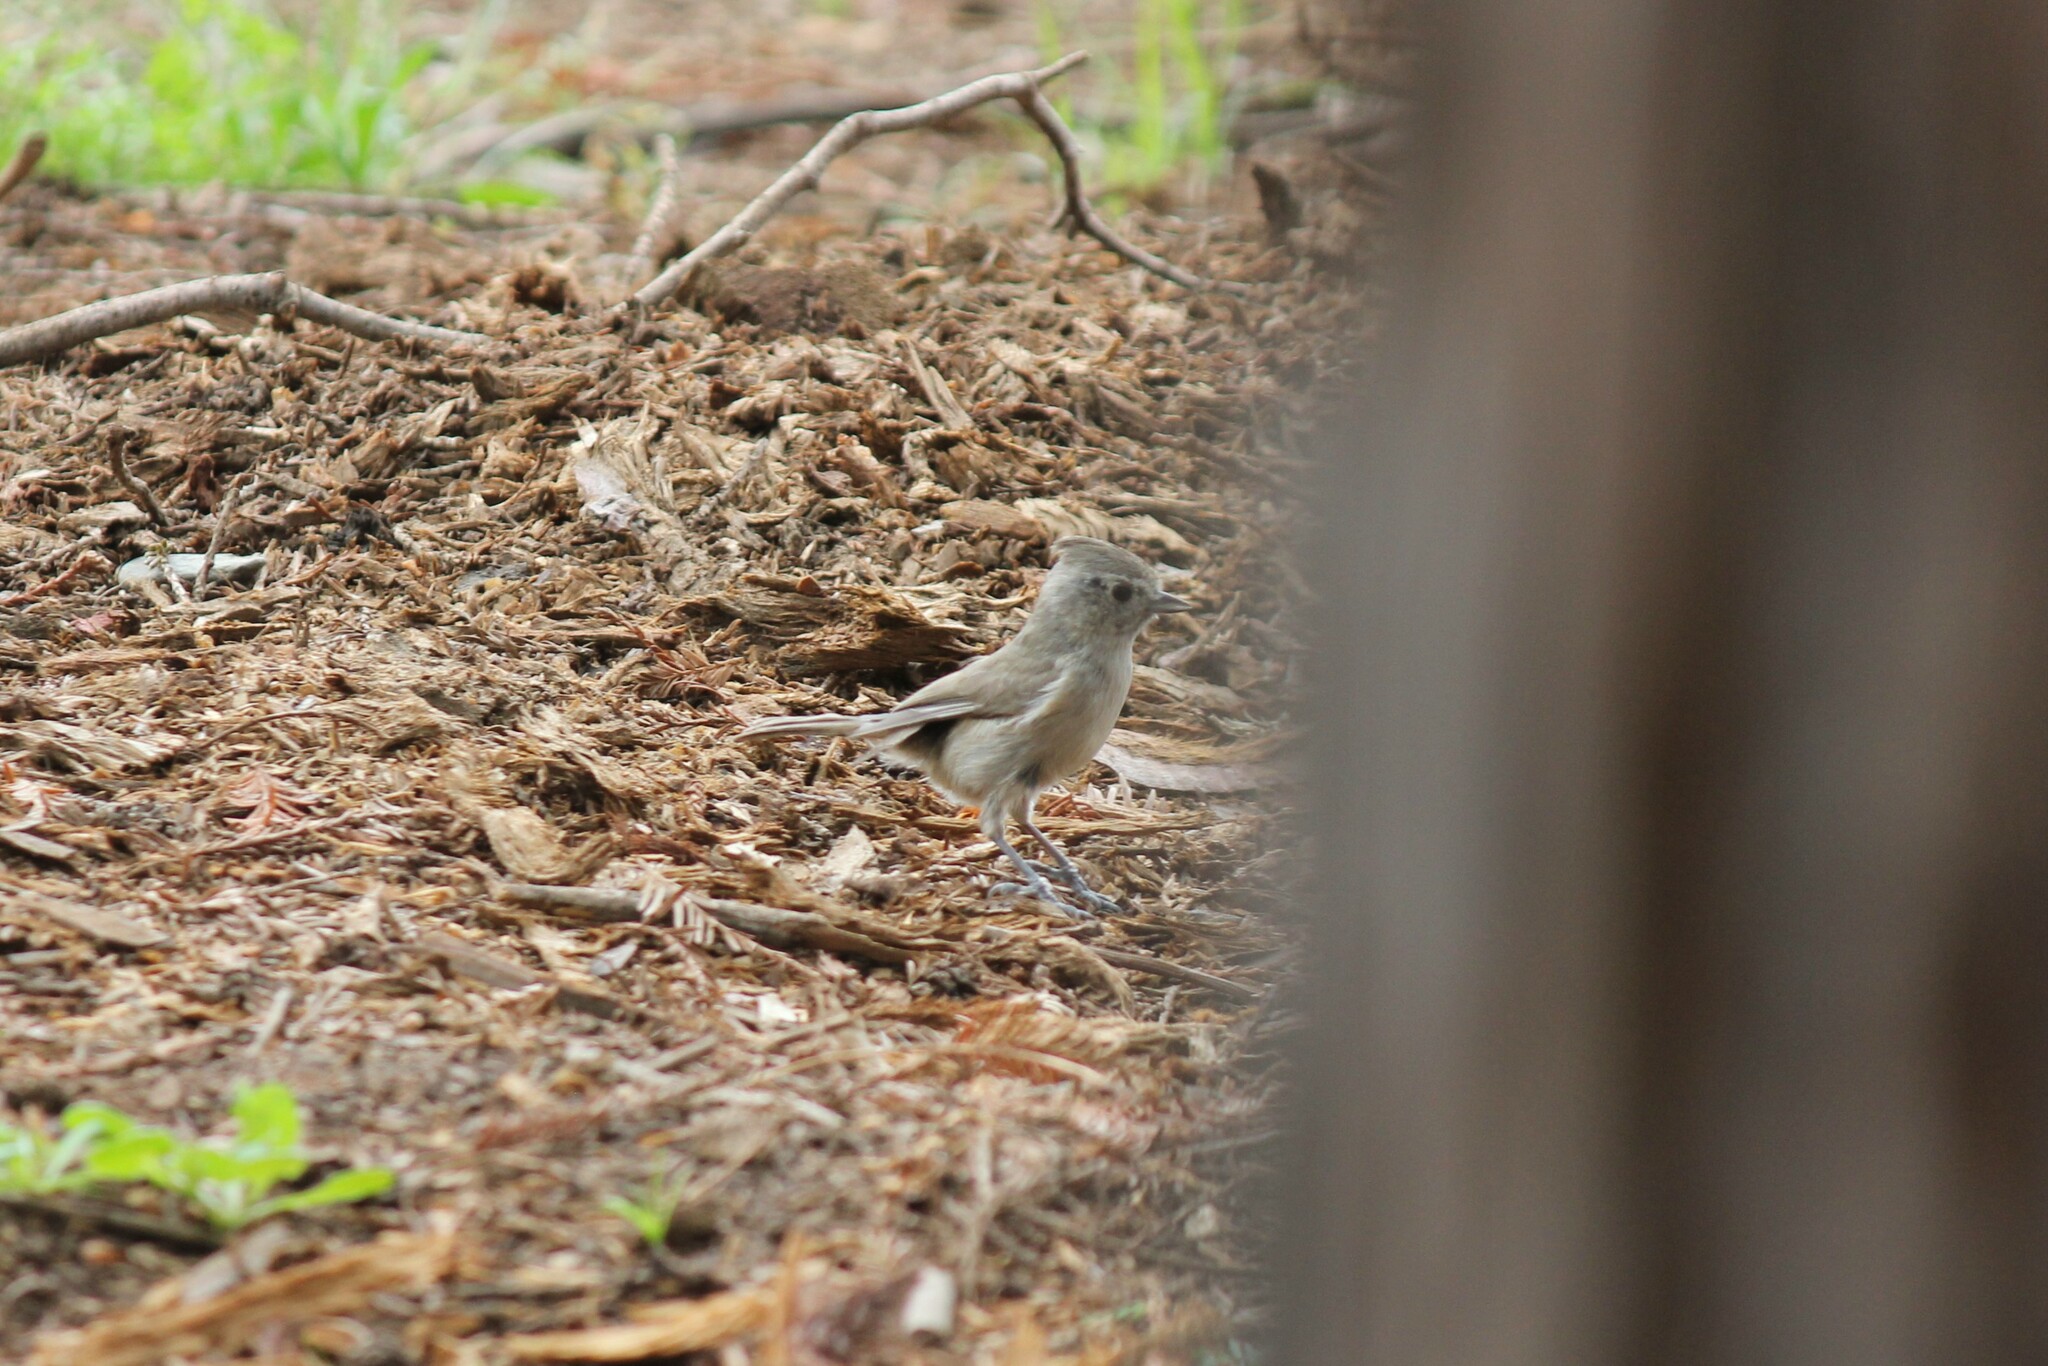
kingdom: Animalia
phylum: Chordata
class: Aves
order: Passeriformes
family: Paridae
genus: Baeolophus
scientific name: Baeolophus inornatus
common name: Oak titmouse
